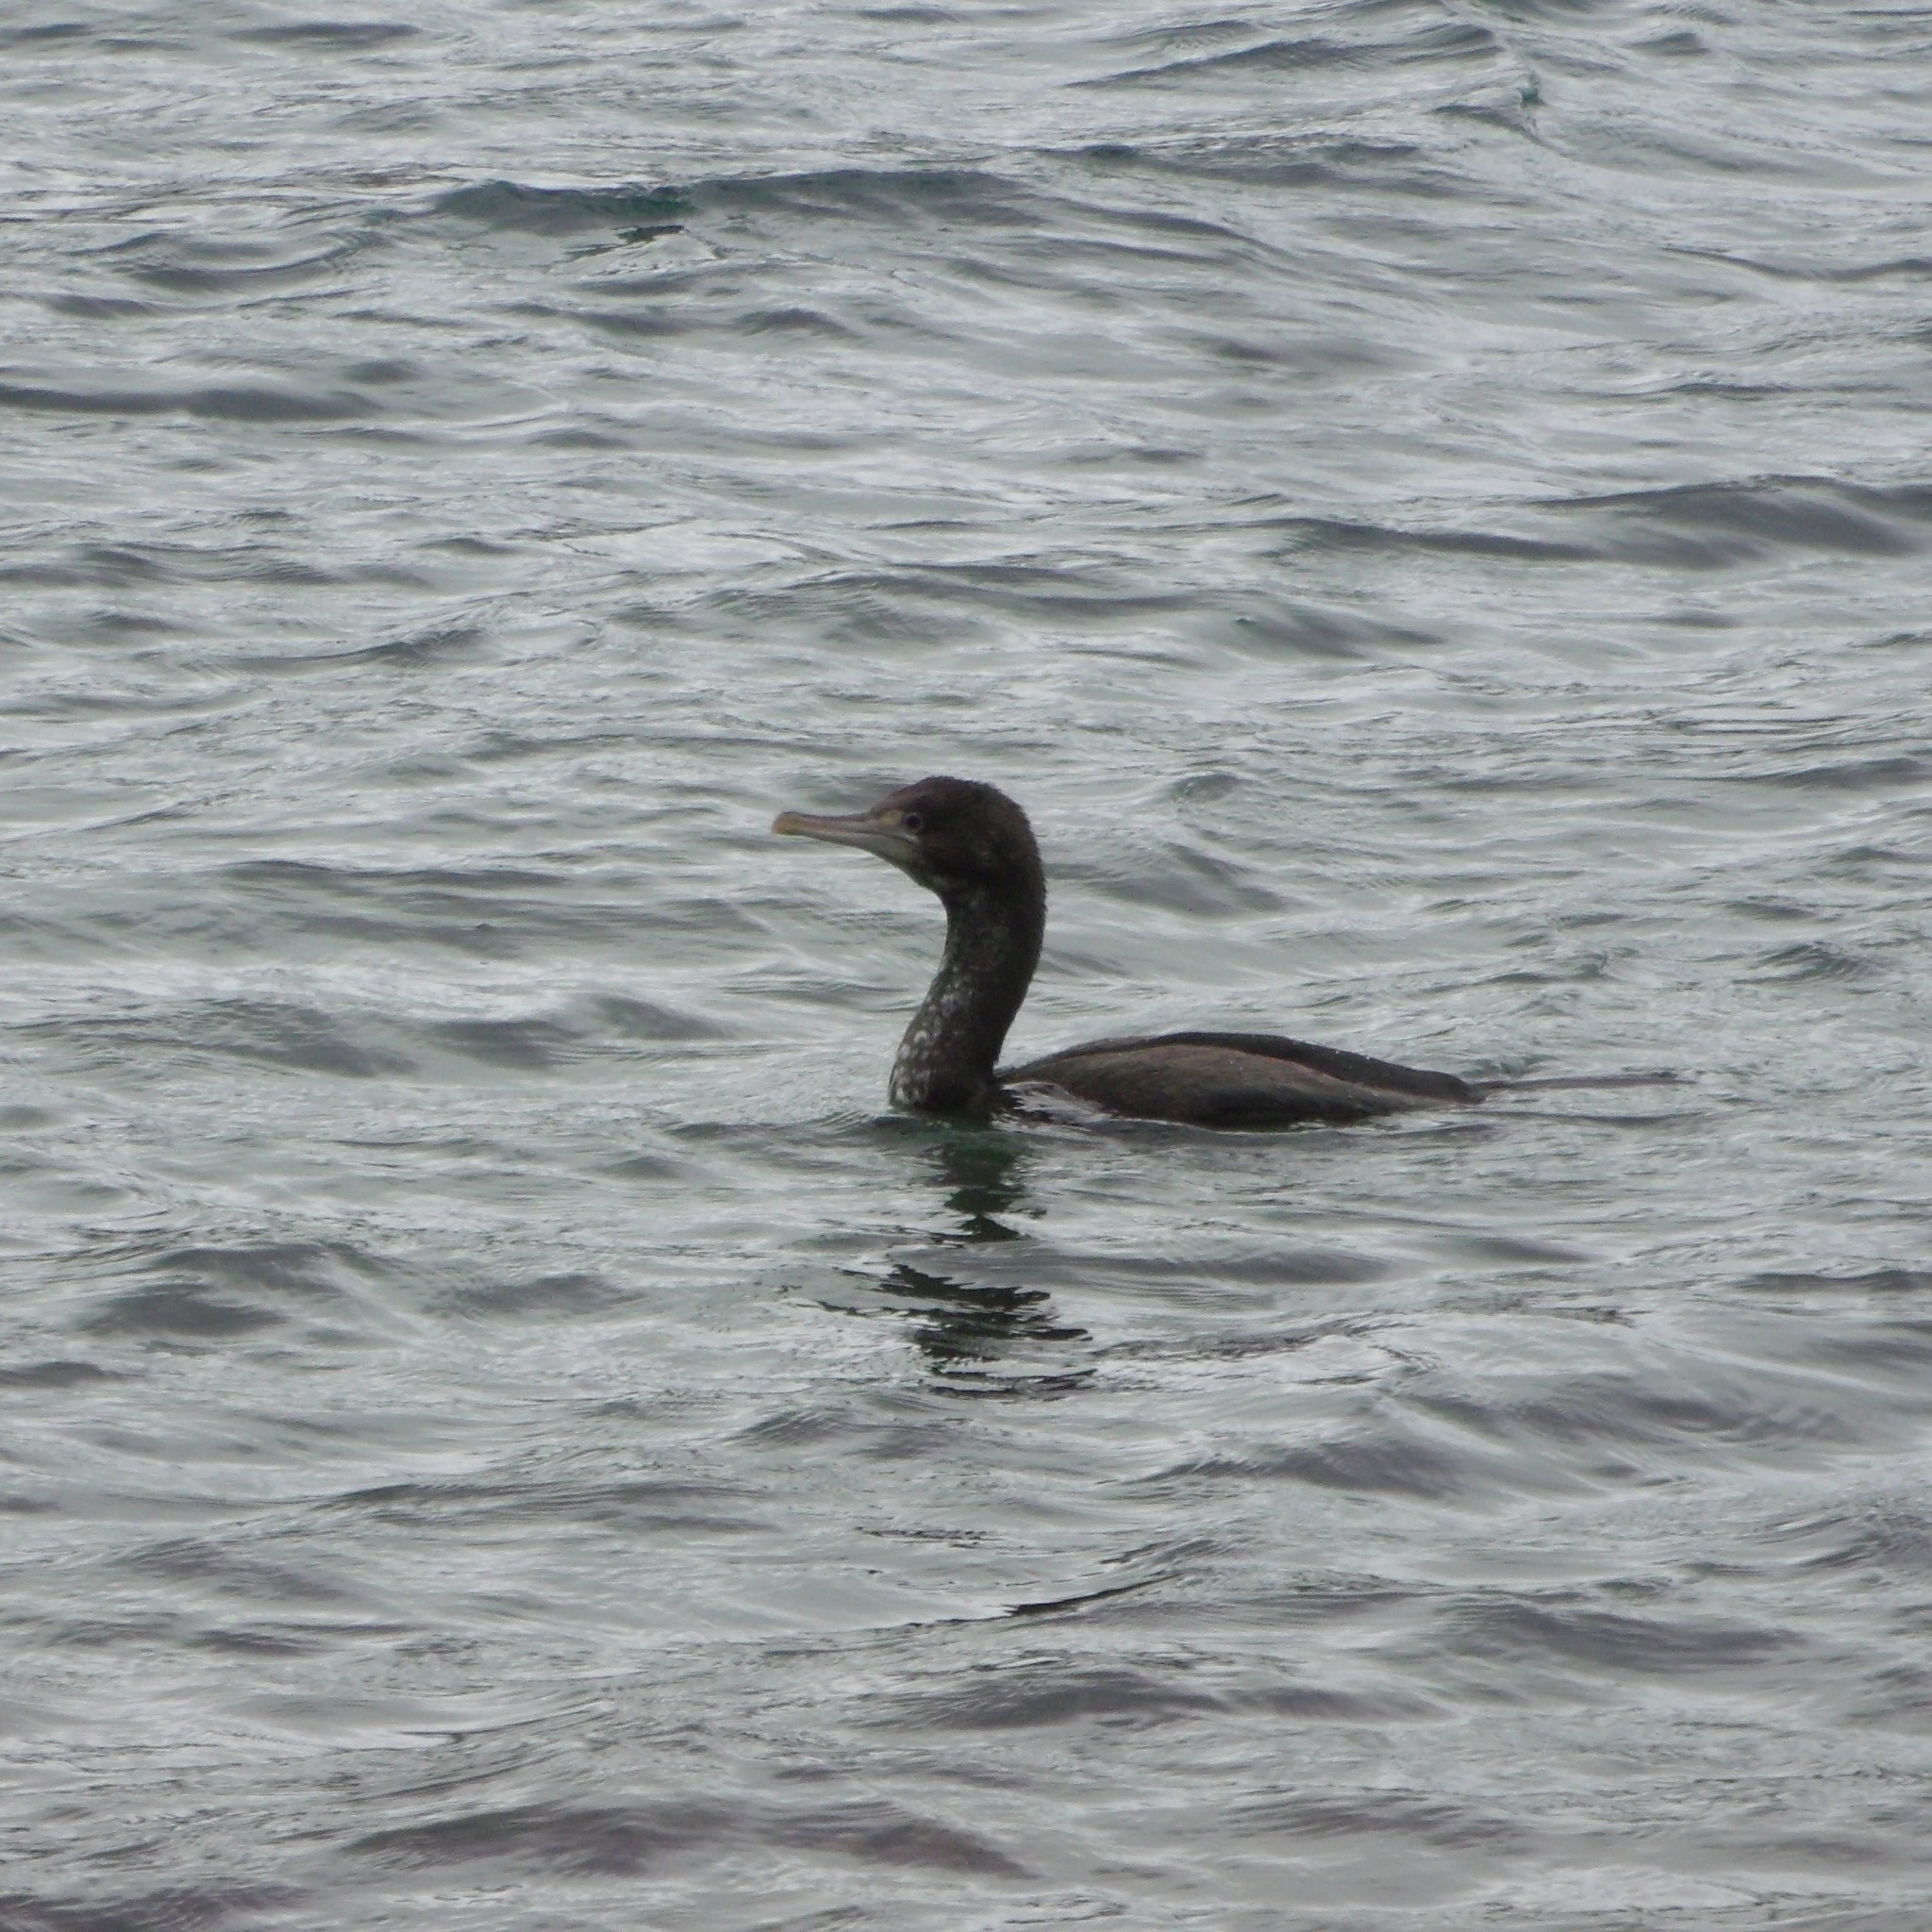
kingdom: Animalia
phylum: Chordata
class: Aves
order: Suliformes
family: Phalacrocoracidae
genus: Phalacrocorax
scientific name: Phalacrocorax varius
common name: Pied cormorant
